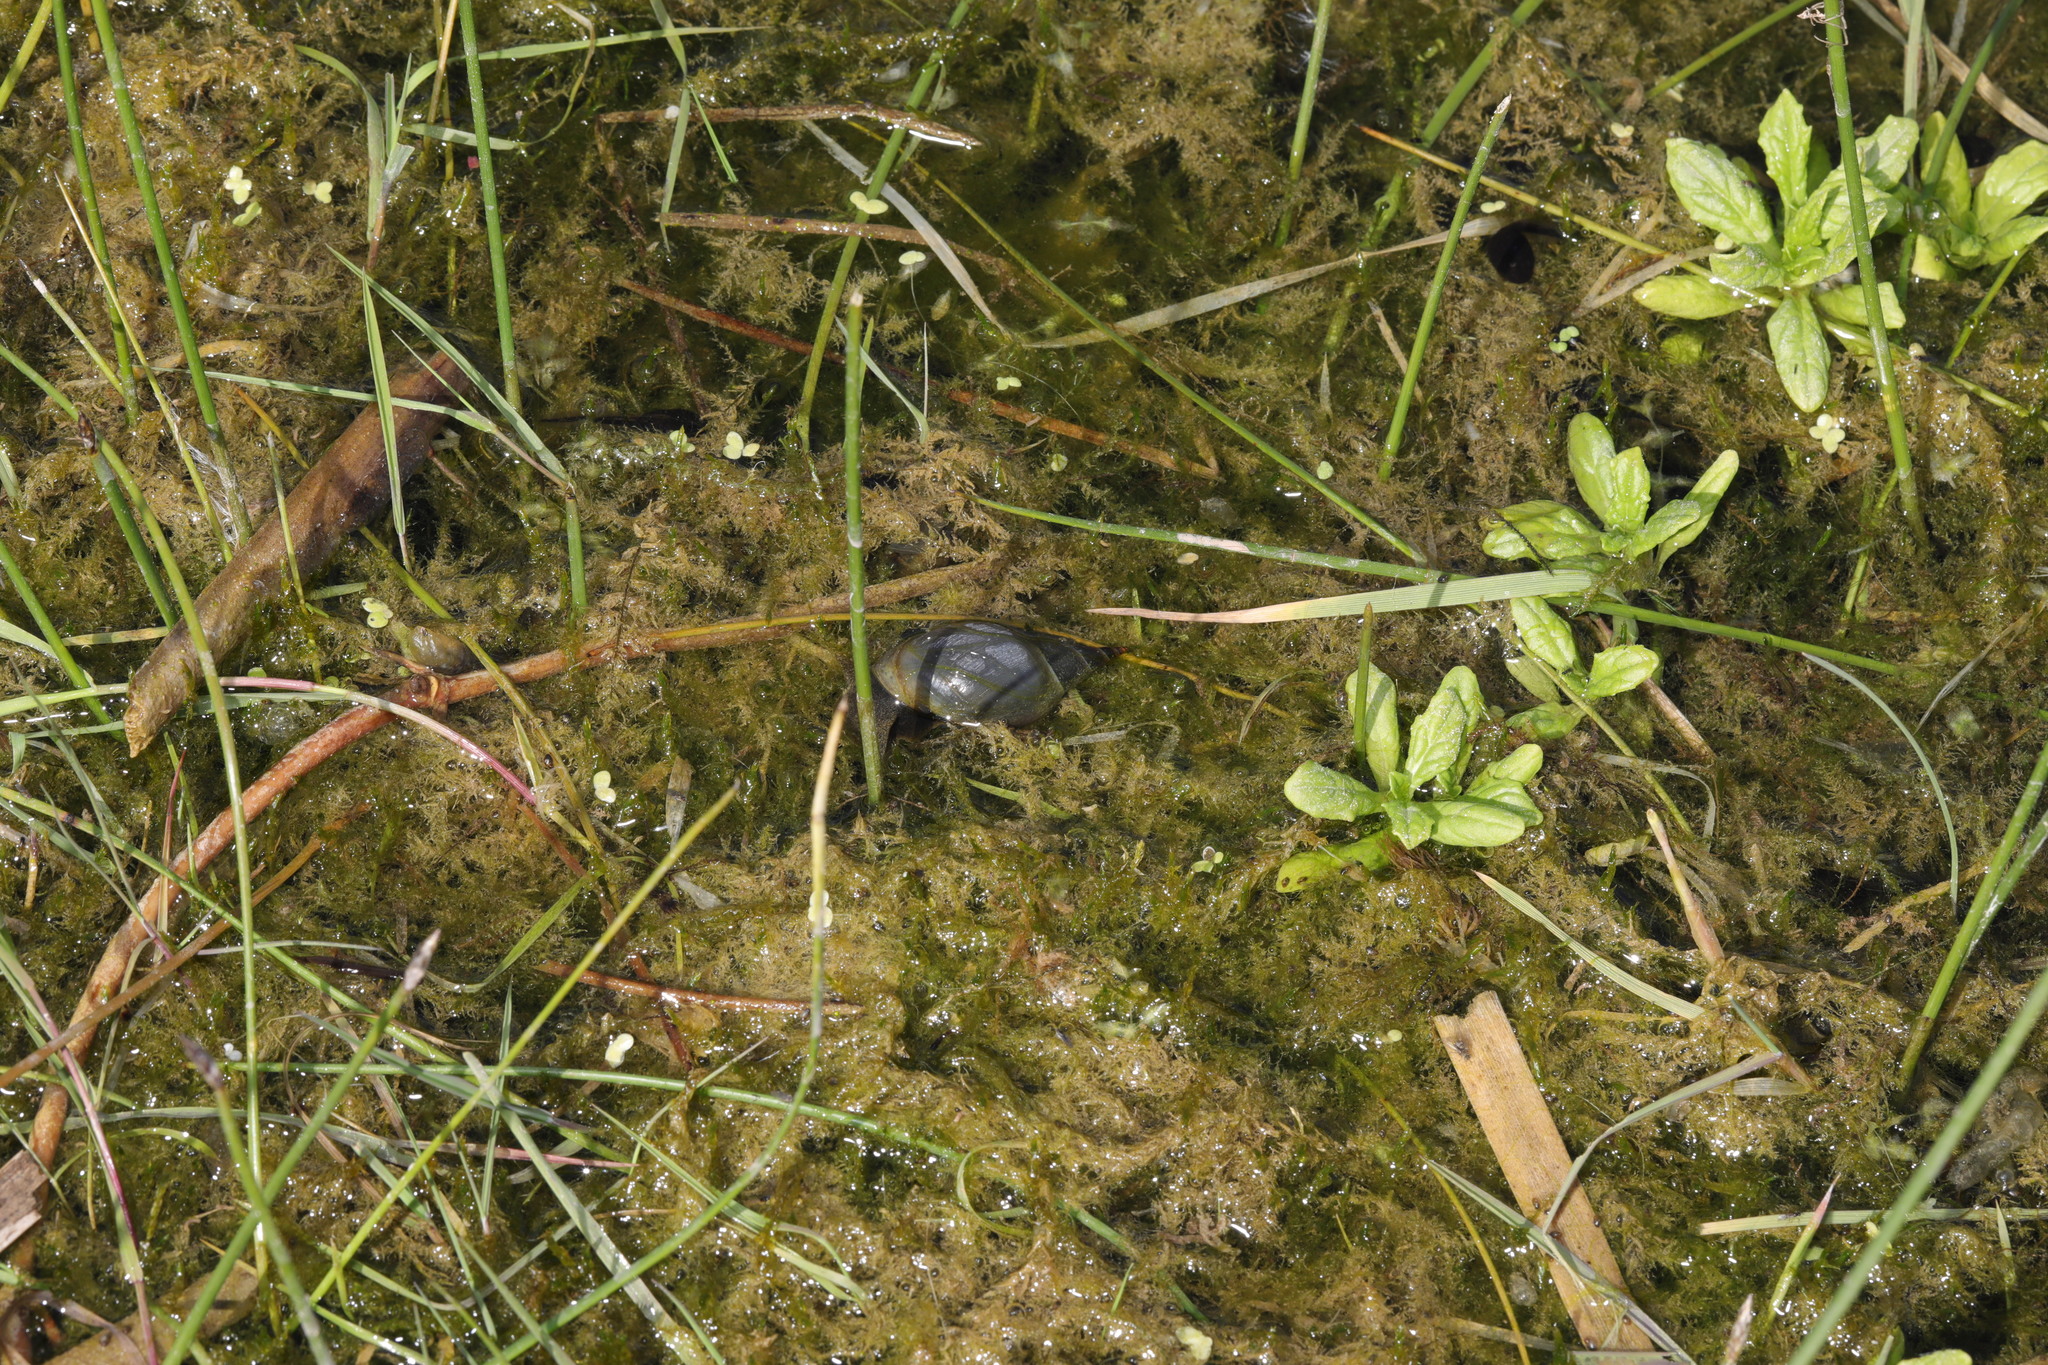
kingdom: Animalia
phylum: Mollusca
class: Gastropoda
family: Lymnaeidae
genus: Lymnaea
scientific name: Lymnaea stagnalis
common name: Great pond snail
